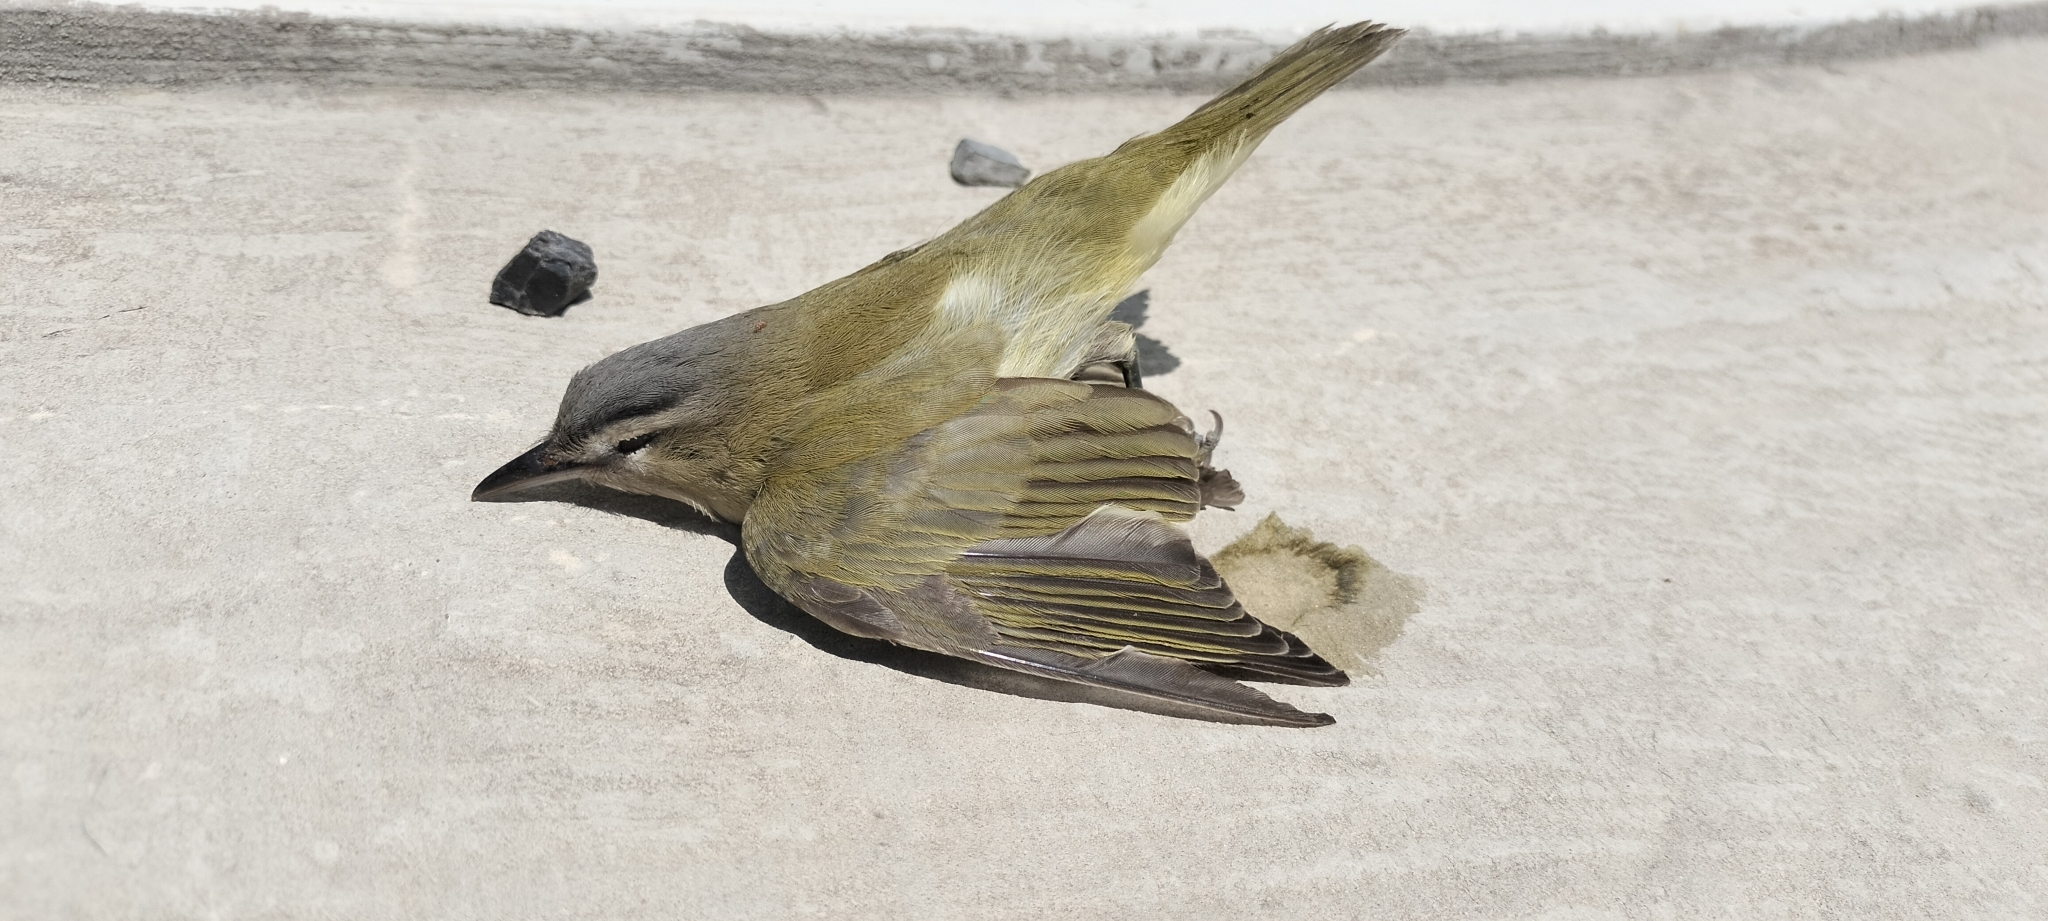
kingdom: Animalia
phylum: Chordata
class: Aves
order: Passeriformes
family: Vireonidae
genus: Vireo
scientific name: Vireo olivaceus
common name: Red-eyed vireo
